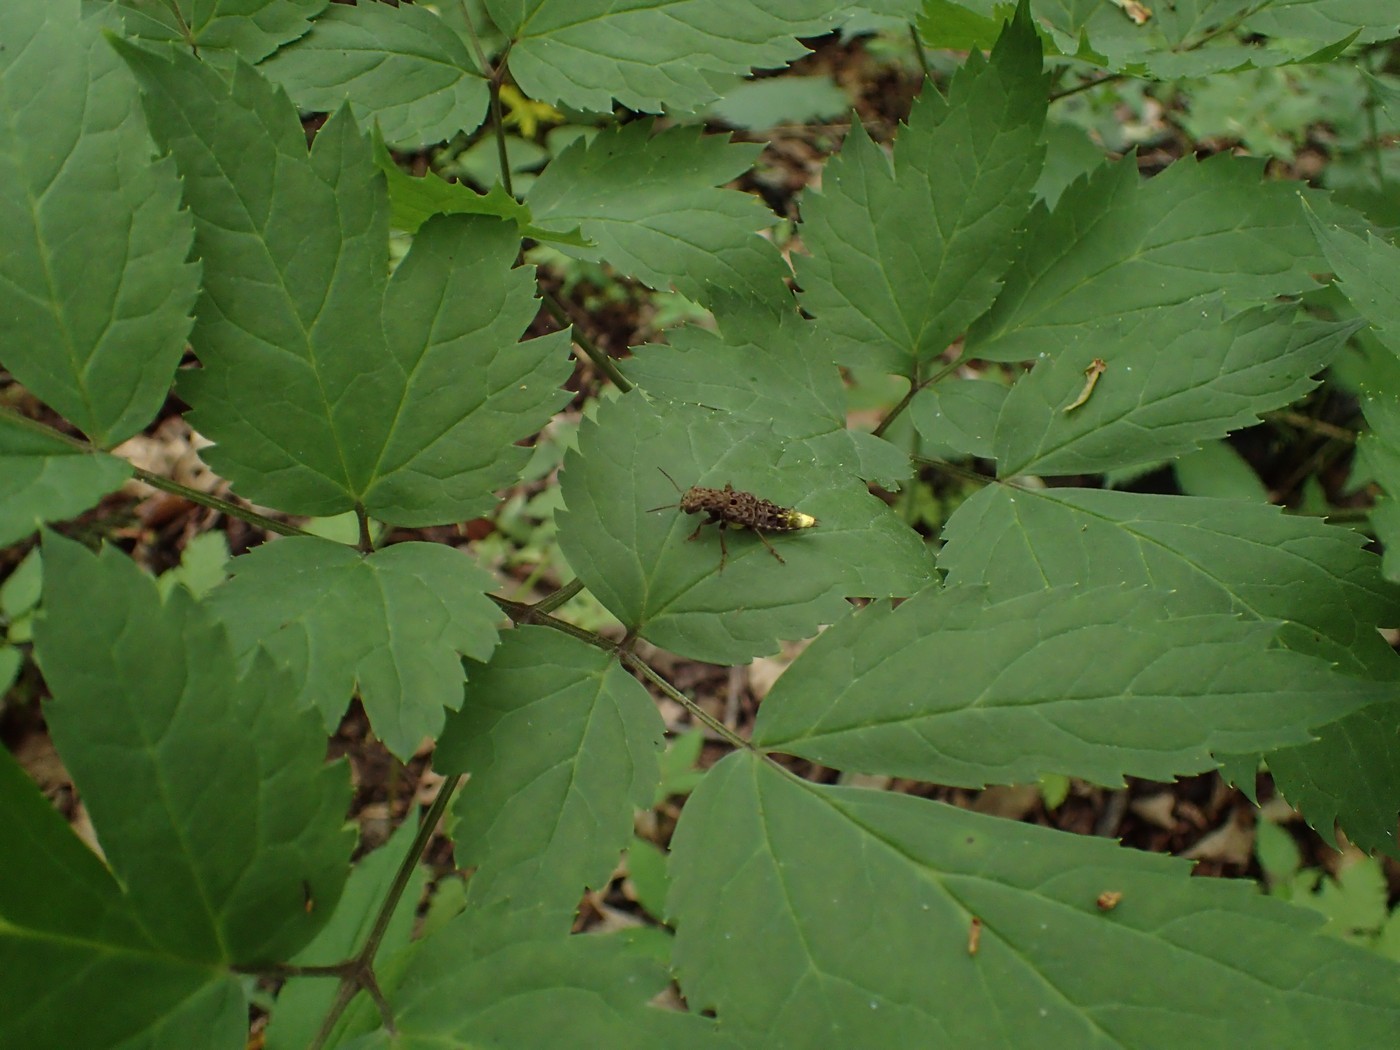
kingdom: Animalia
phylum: Arthropoda
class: Insecta
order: Coleoptera
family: Staphylinidae
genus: Ontholestes
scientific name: Ontholestes cingulatus
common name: Gold-and-brown rove beetle
